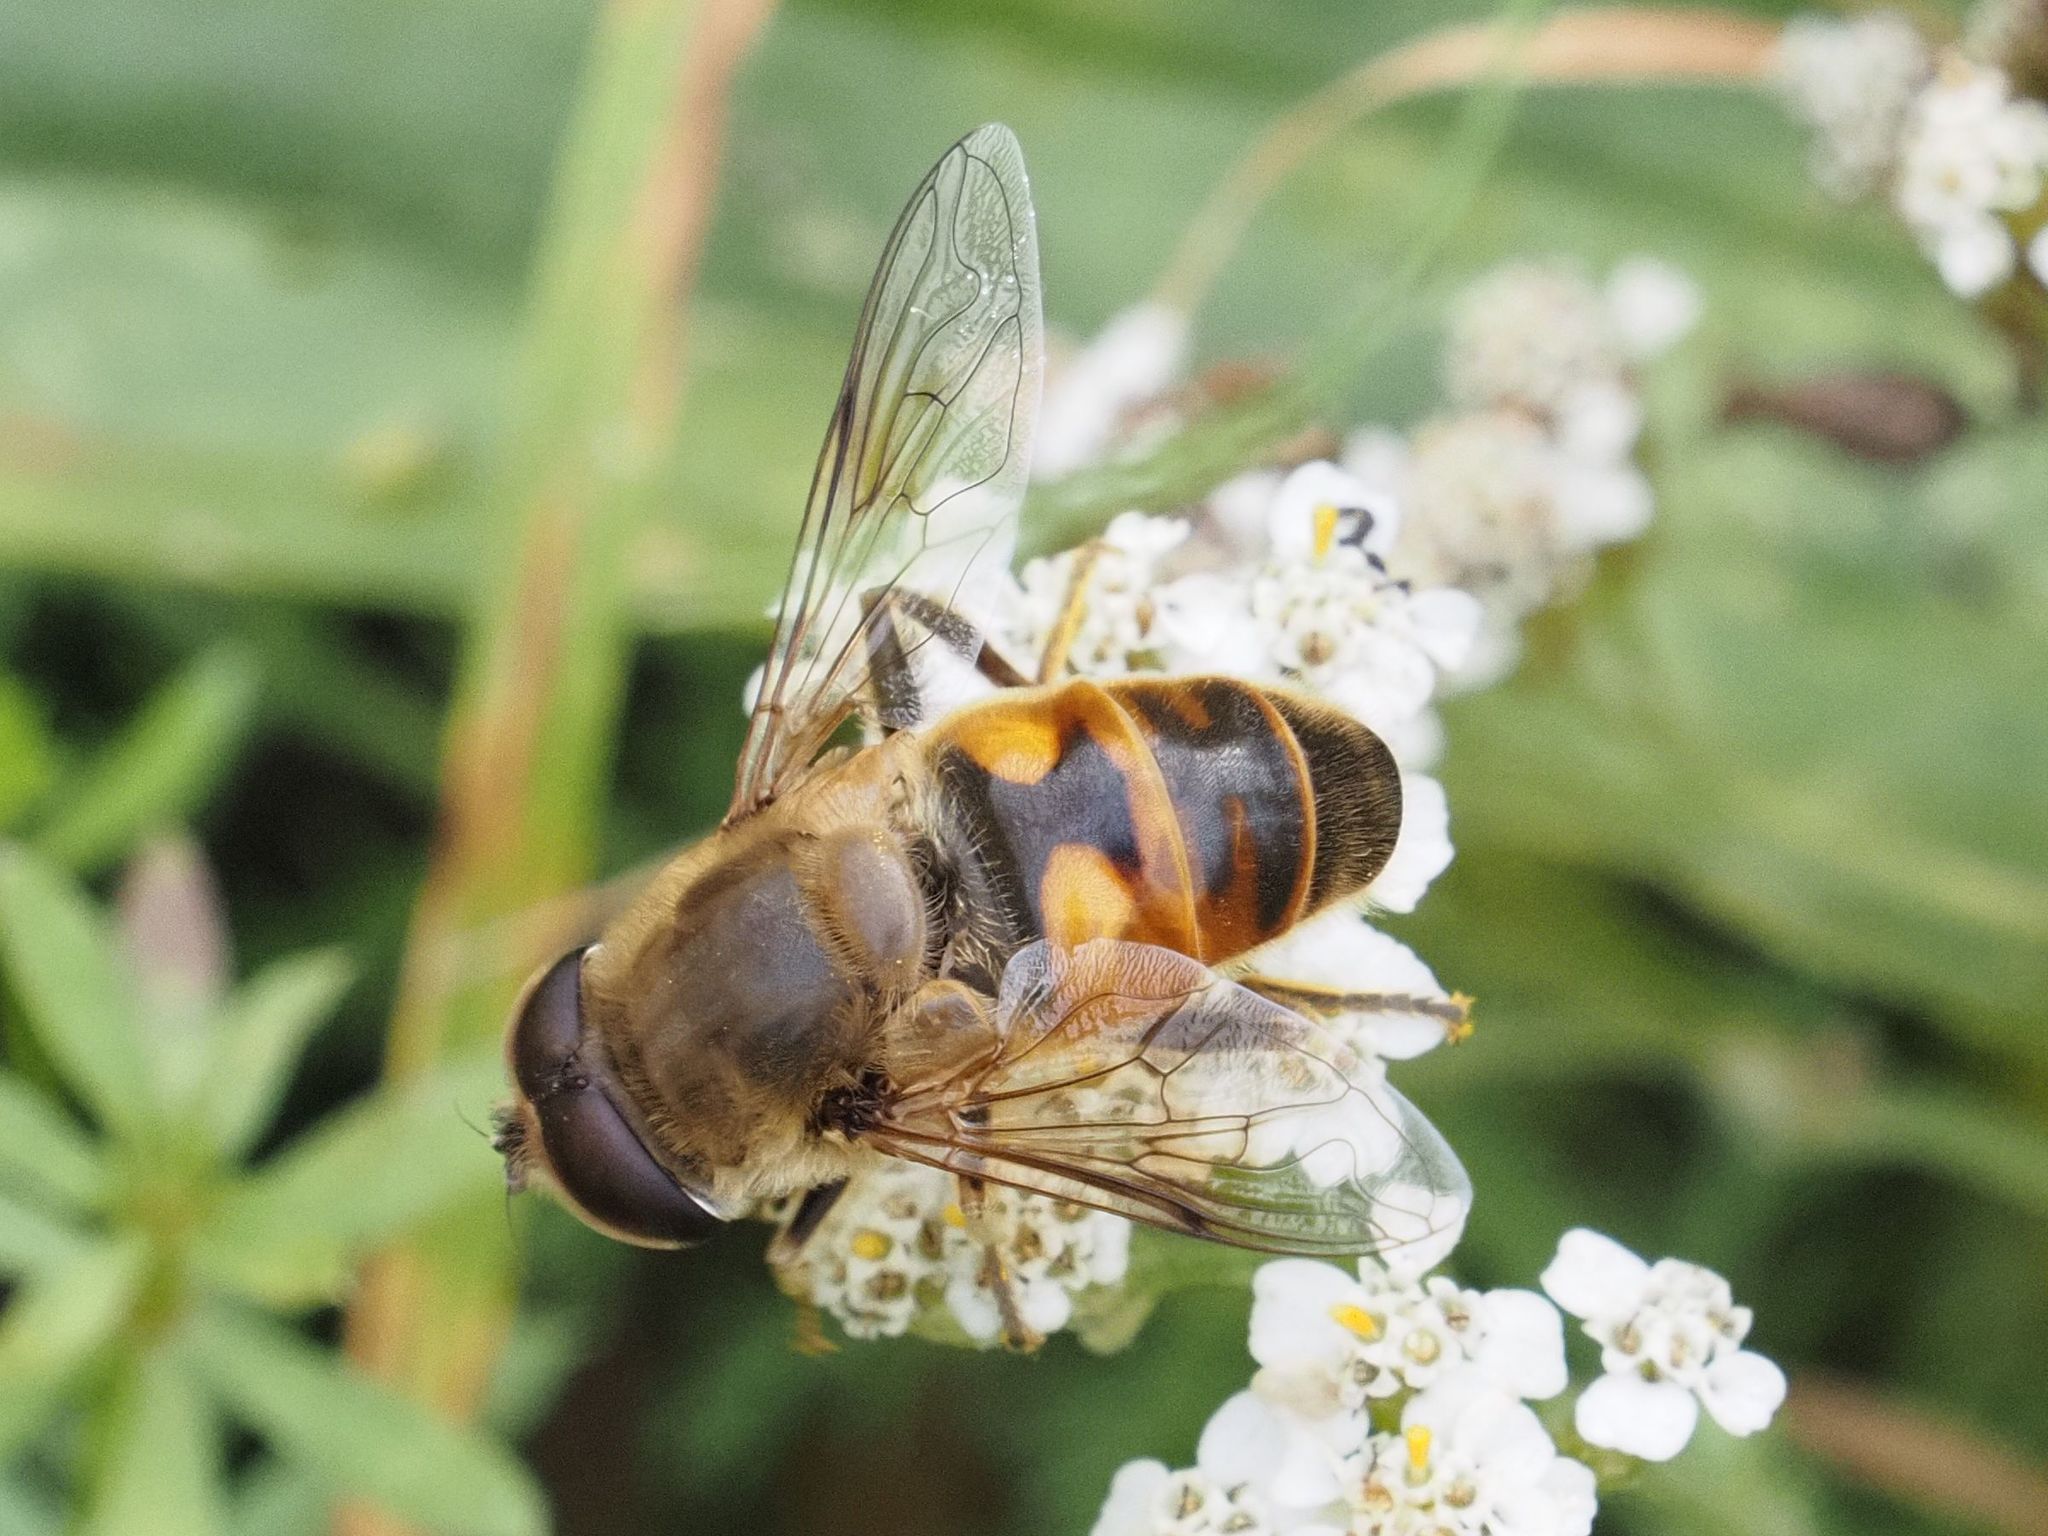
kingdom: Animalia
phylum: Arthropoda
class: Insecta
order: Diptera
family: Syrphidae
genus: Eristalis
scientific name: Eristalis tenax
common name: Drone fly
